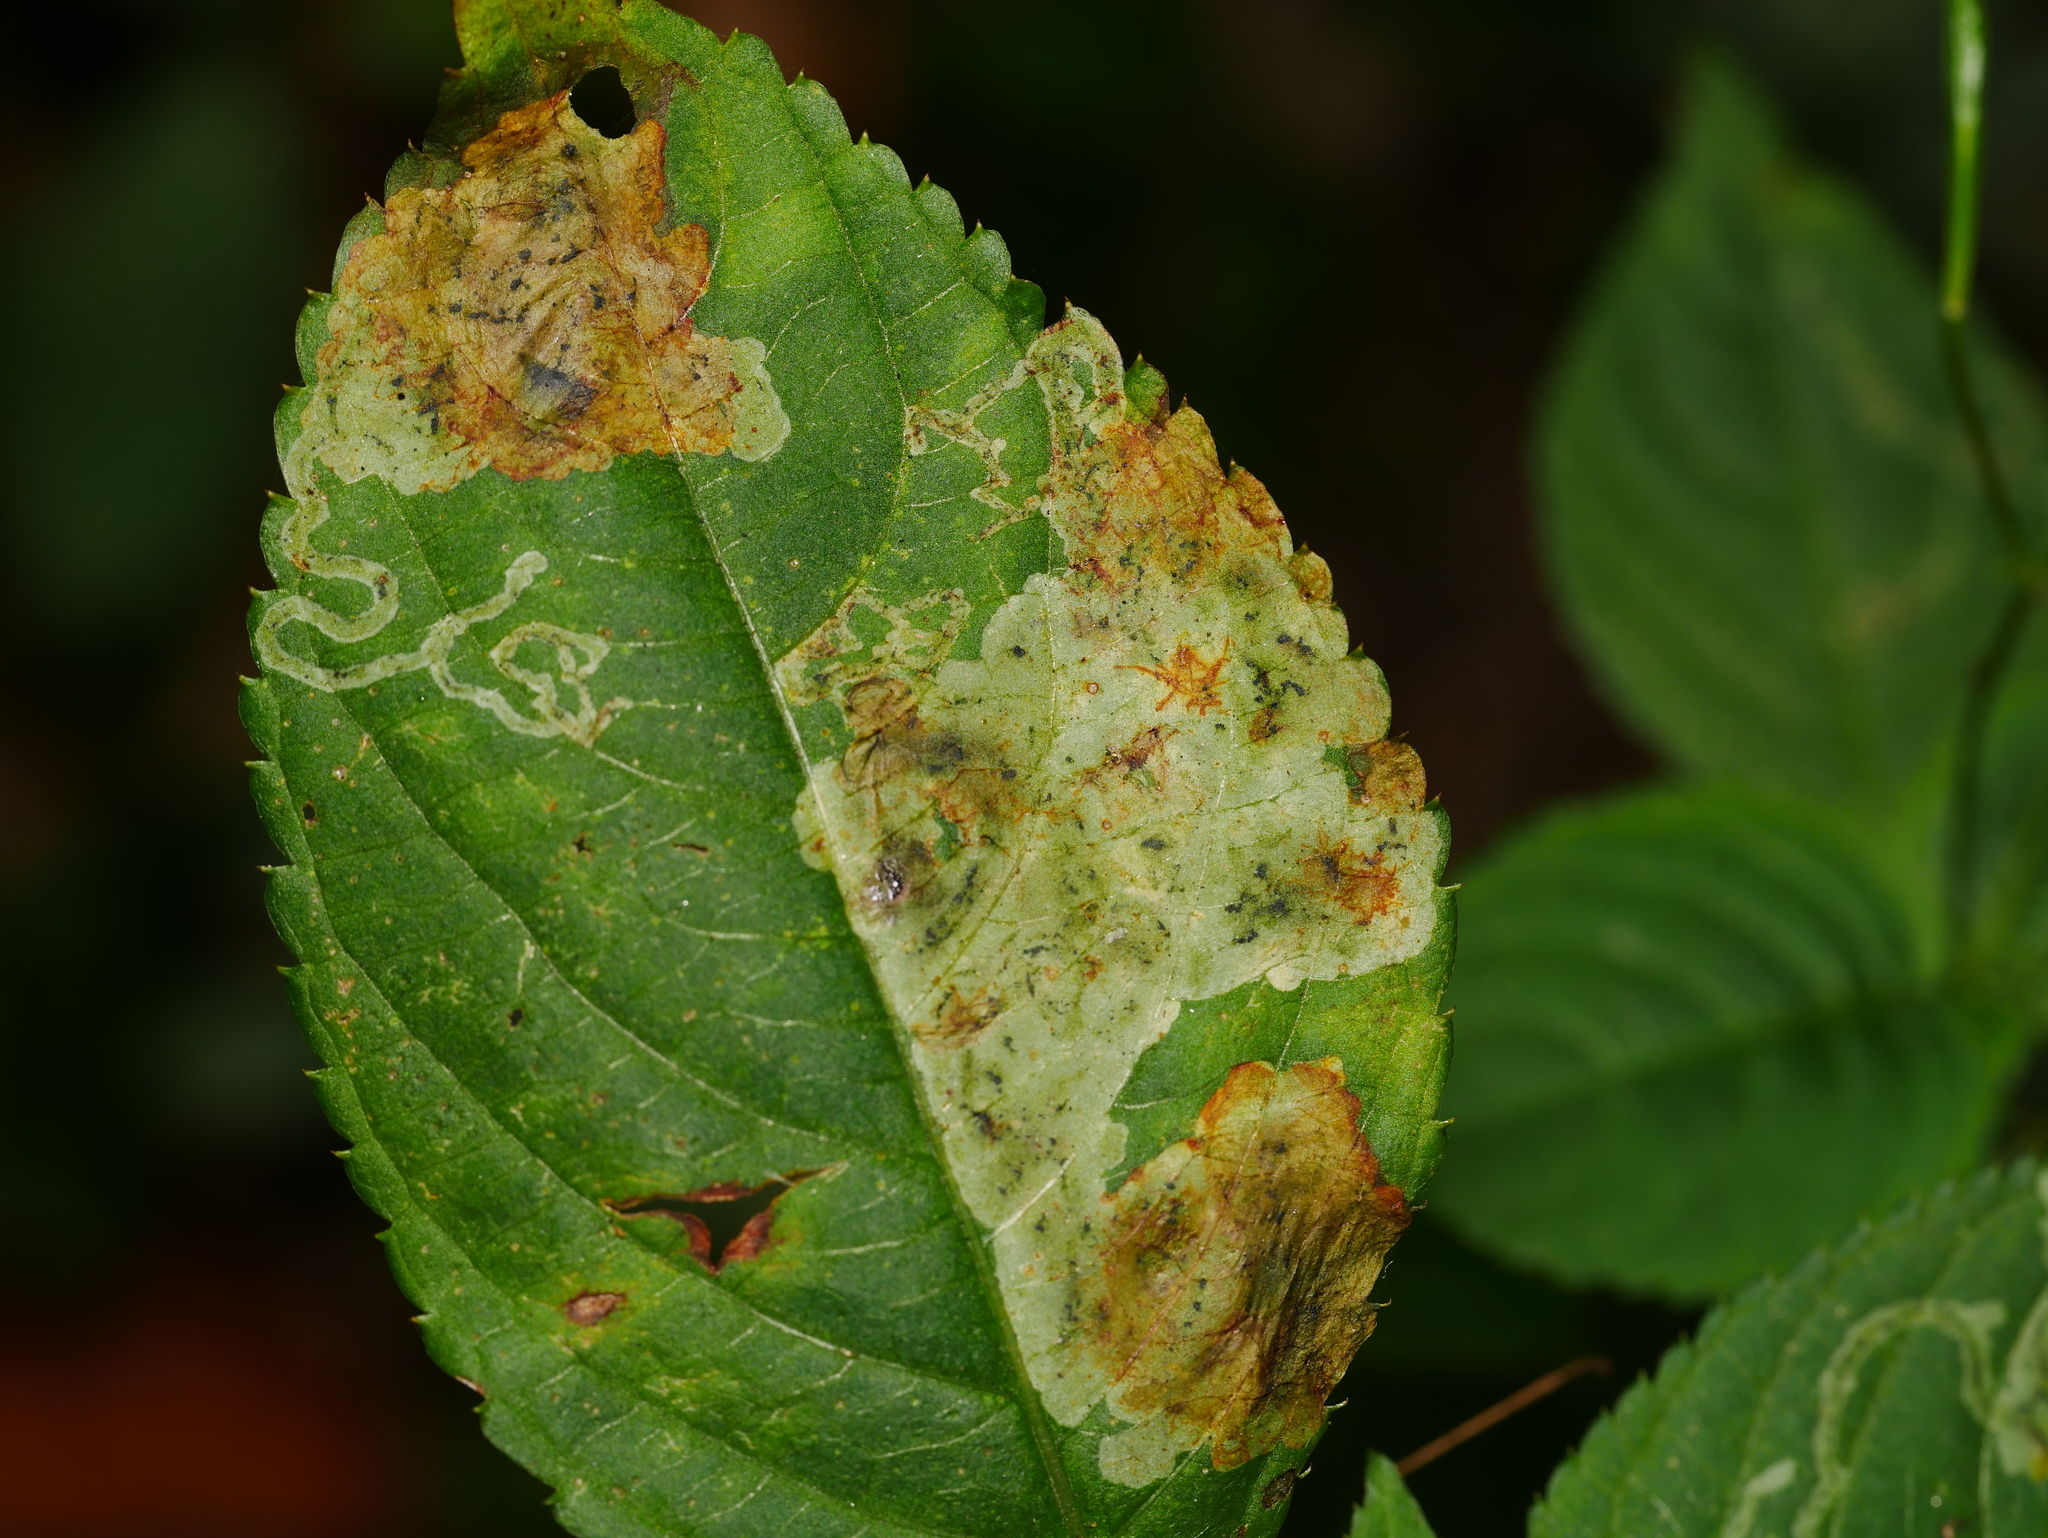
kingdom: Animalia
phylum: Arthropoda
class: Insecta
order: Diptera
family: Agromyzidae
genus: Phytoliriomyza
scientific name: Phytoliriomyza melampyga
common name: Jewelweed leaf-miner fly
